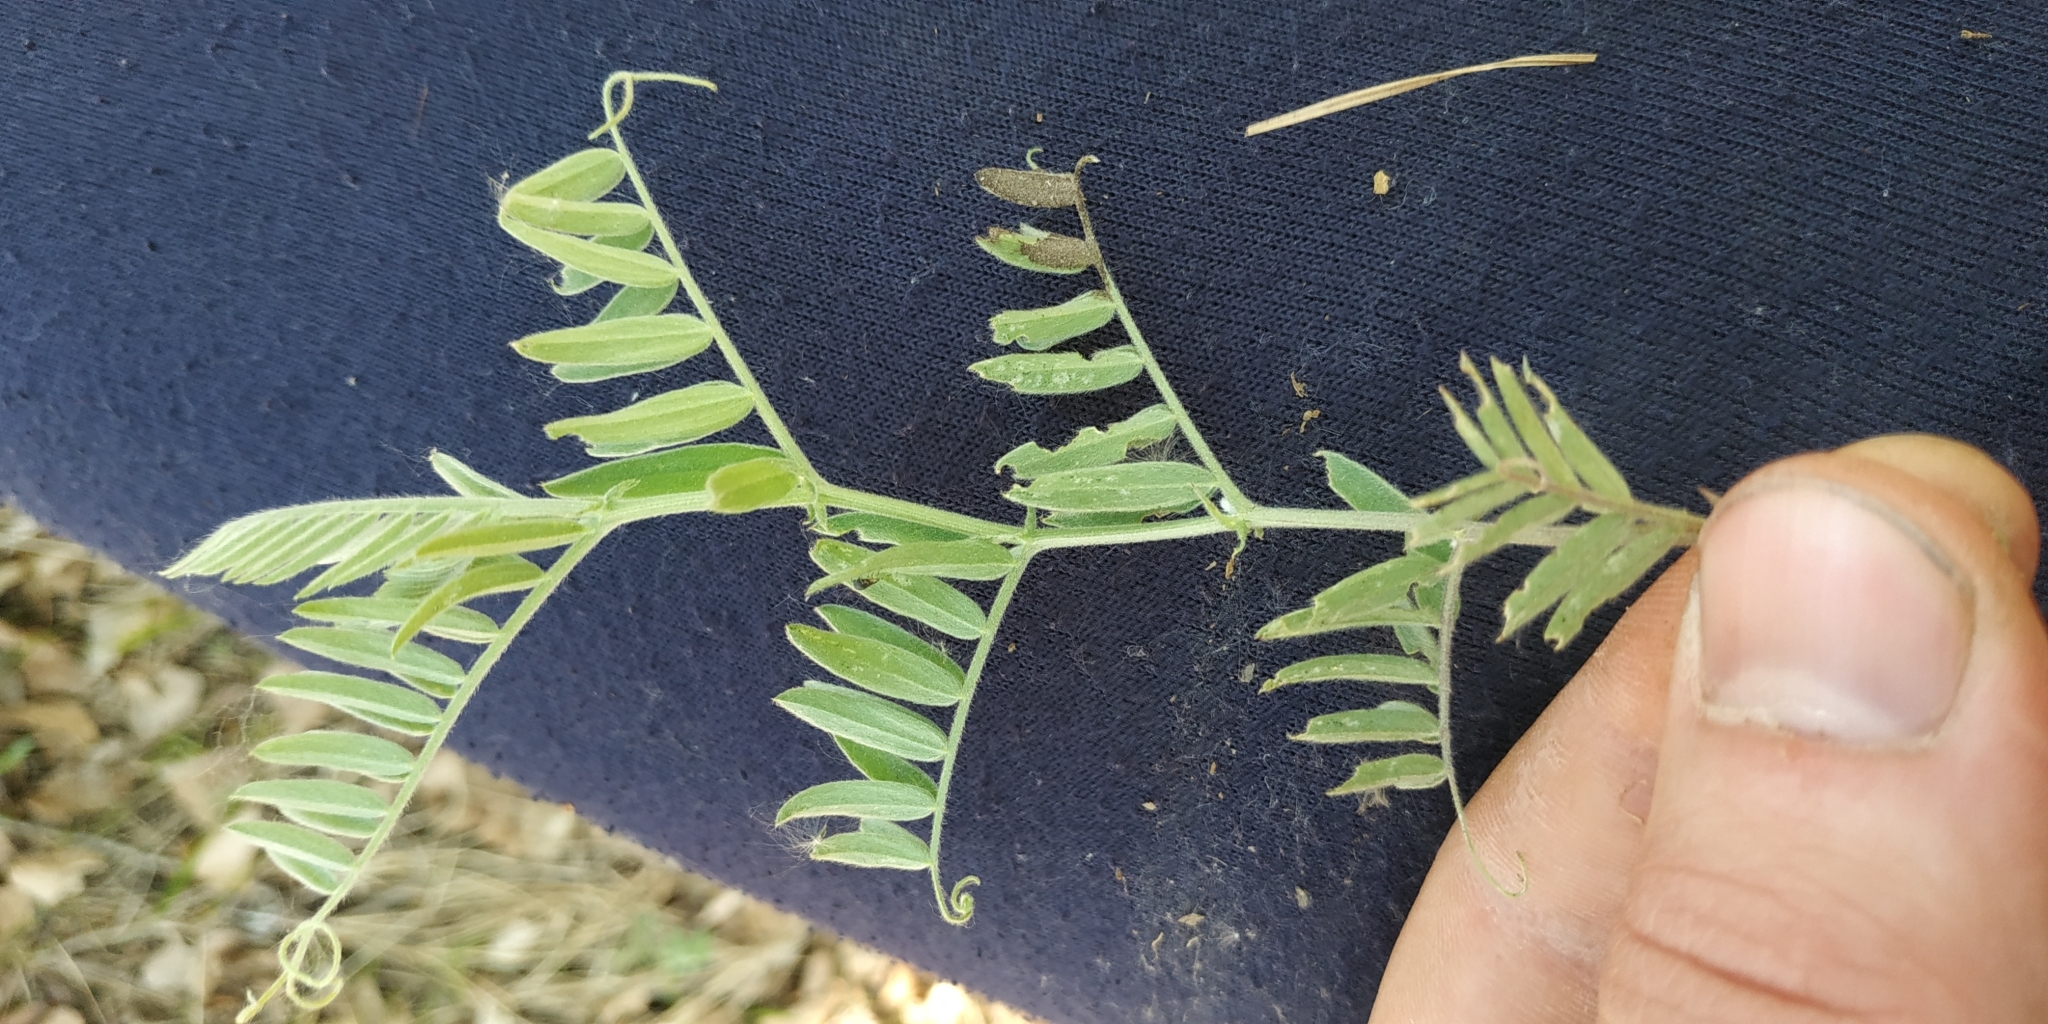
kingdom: Plantae
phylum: Tracheophyta
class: Magnoliopsida
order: Fabales
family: Fabaceae
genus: Vicia
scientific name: Vicia cracca
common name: Bird vetch
